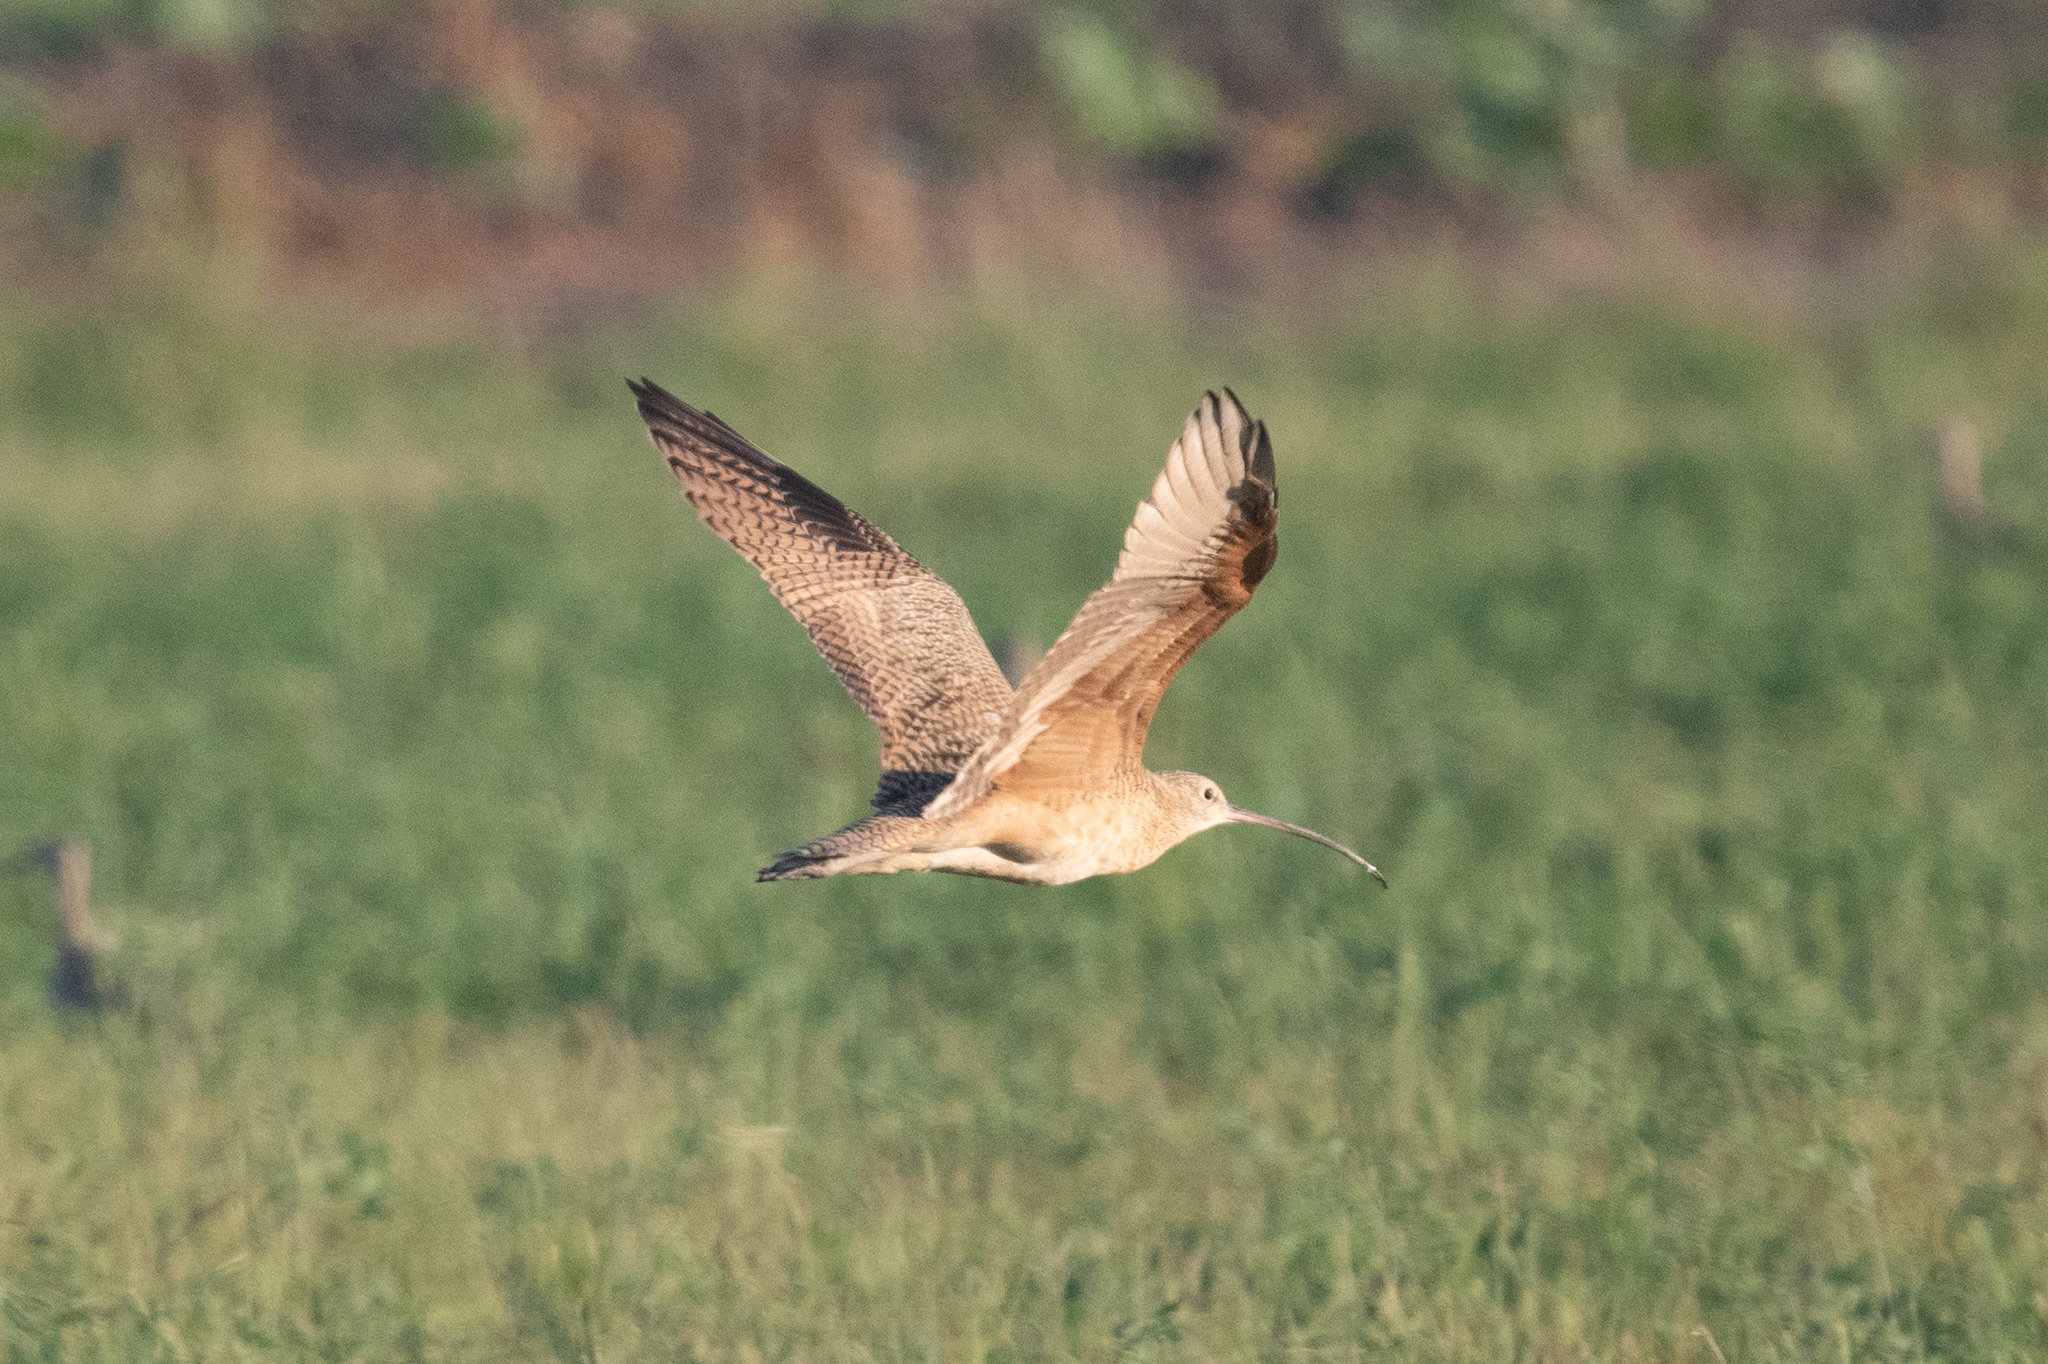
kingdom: Animalia
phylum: Chordata
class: Aves
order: Charadriiformes
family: Scolopacidae
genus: Numenius
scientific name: Numenius americanus
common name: Long-billed curlew
